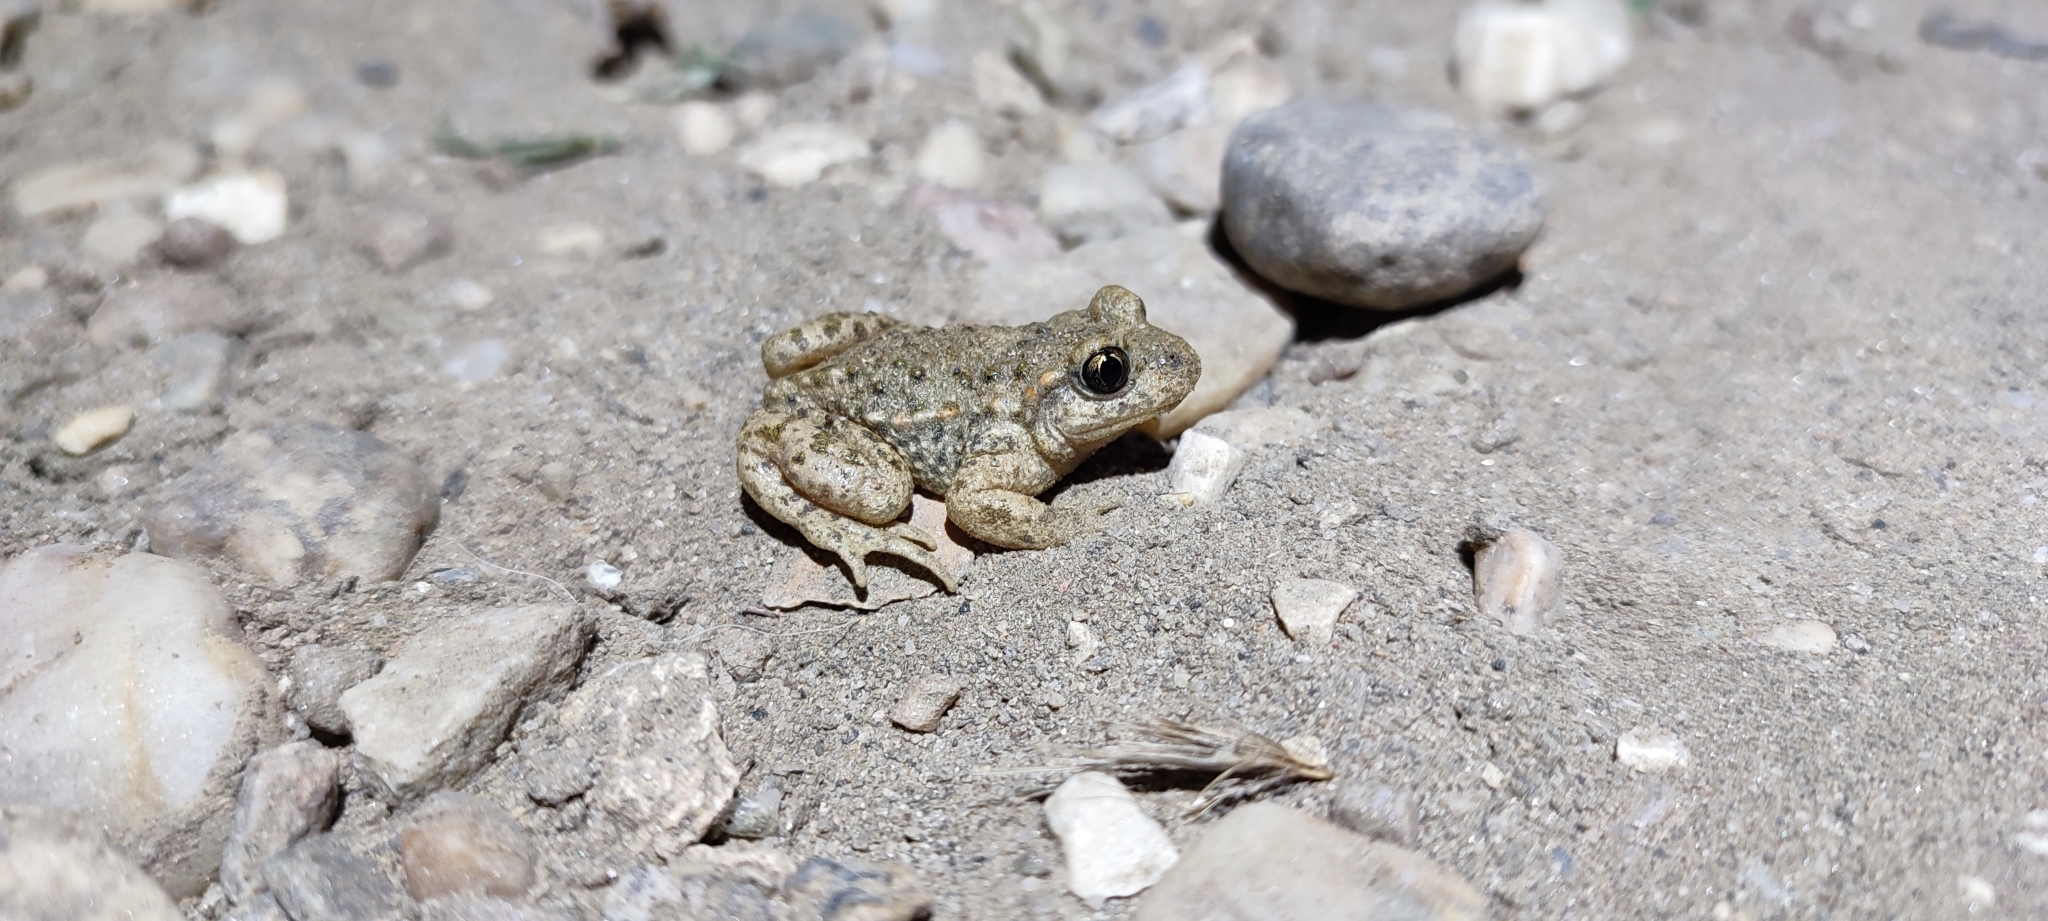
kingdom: Animalia
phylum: Chordata
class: Amphibia
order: Anura
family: Alytidae
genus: Alytes
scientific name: Alytes obstetricans
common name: Midwife toad
